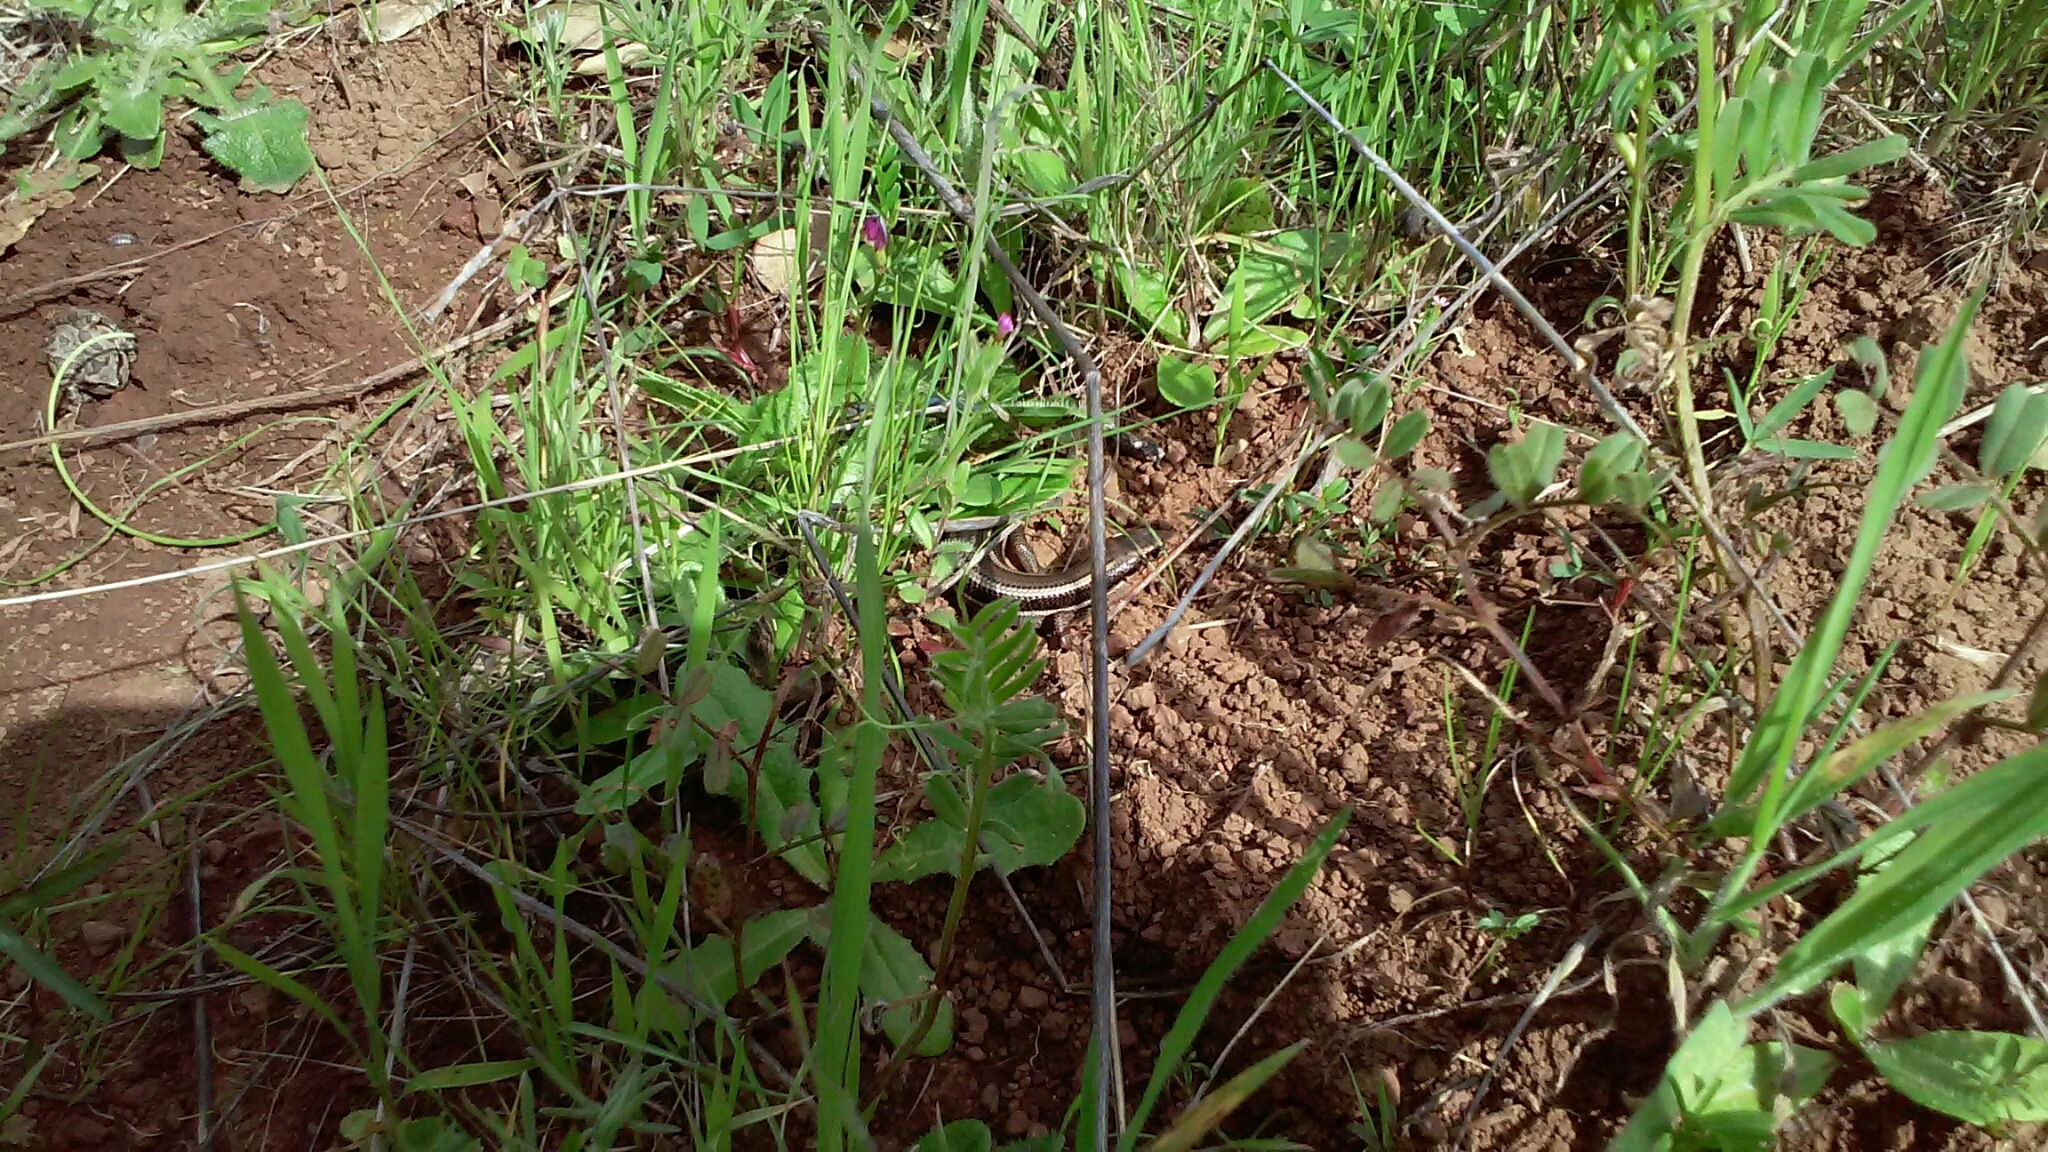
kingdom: Animalia
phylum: Chordata
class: Squamata
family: Phrynosomatidae
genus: Sceloporus
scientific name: Sceloporus occidentalis
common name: Western fence lizard
